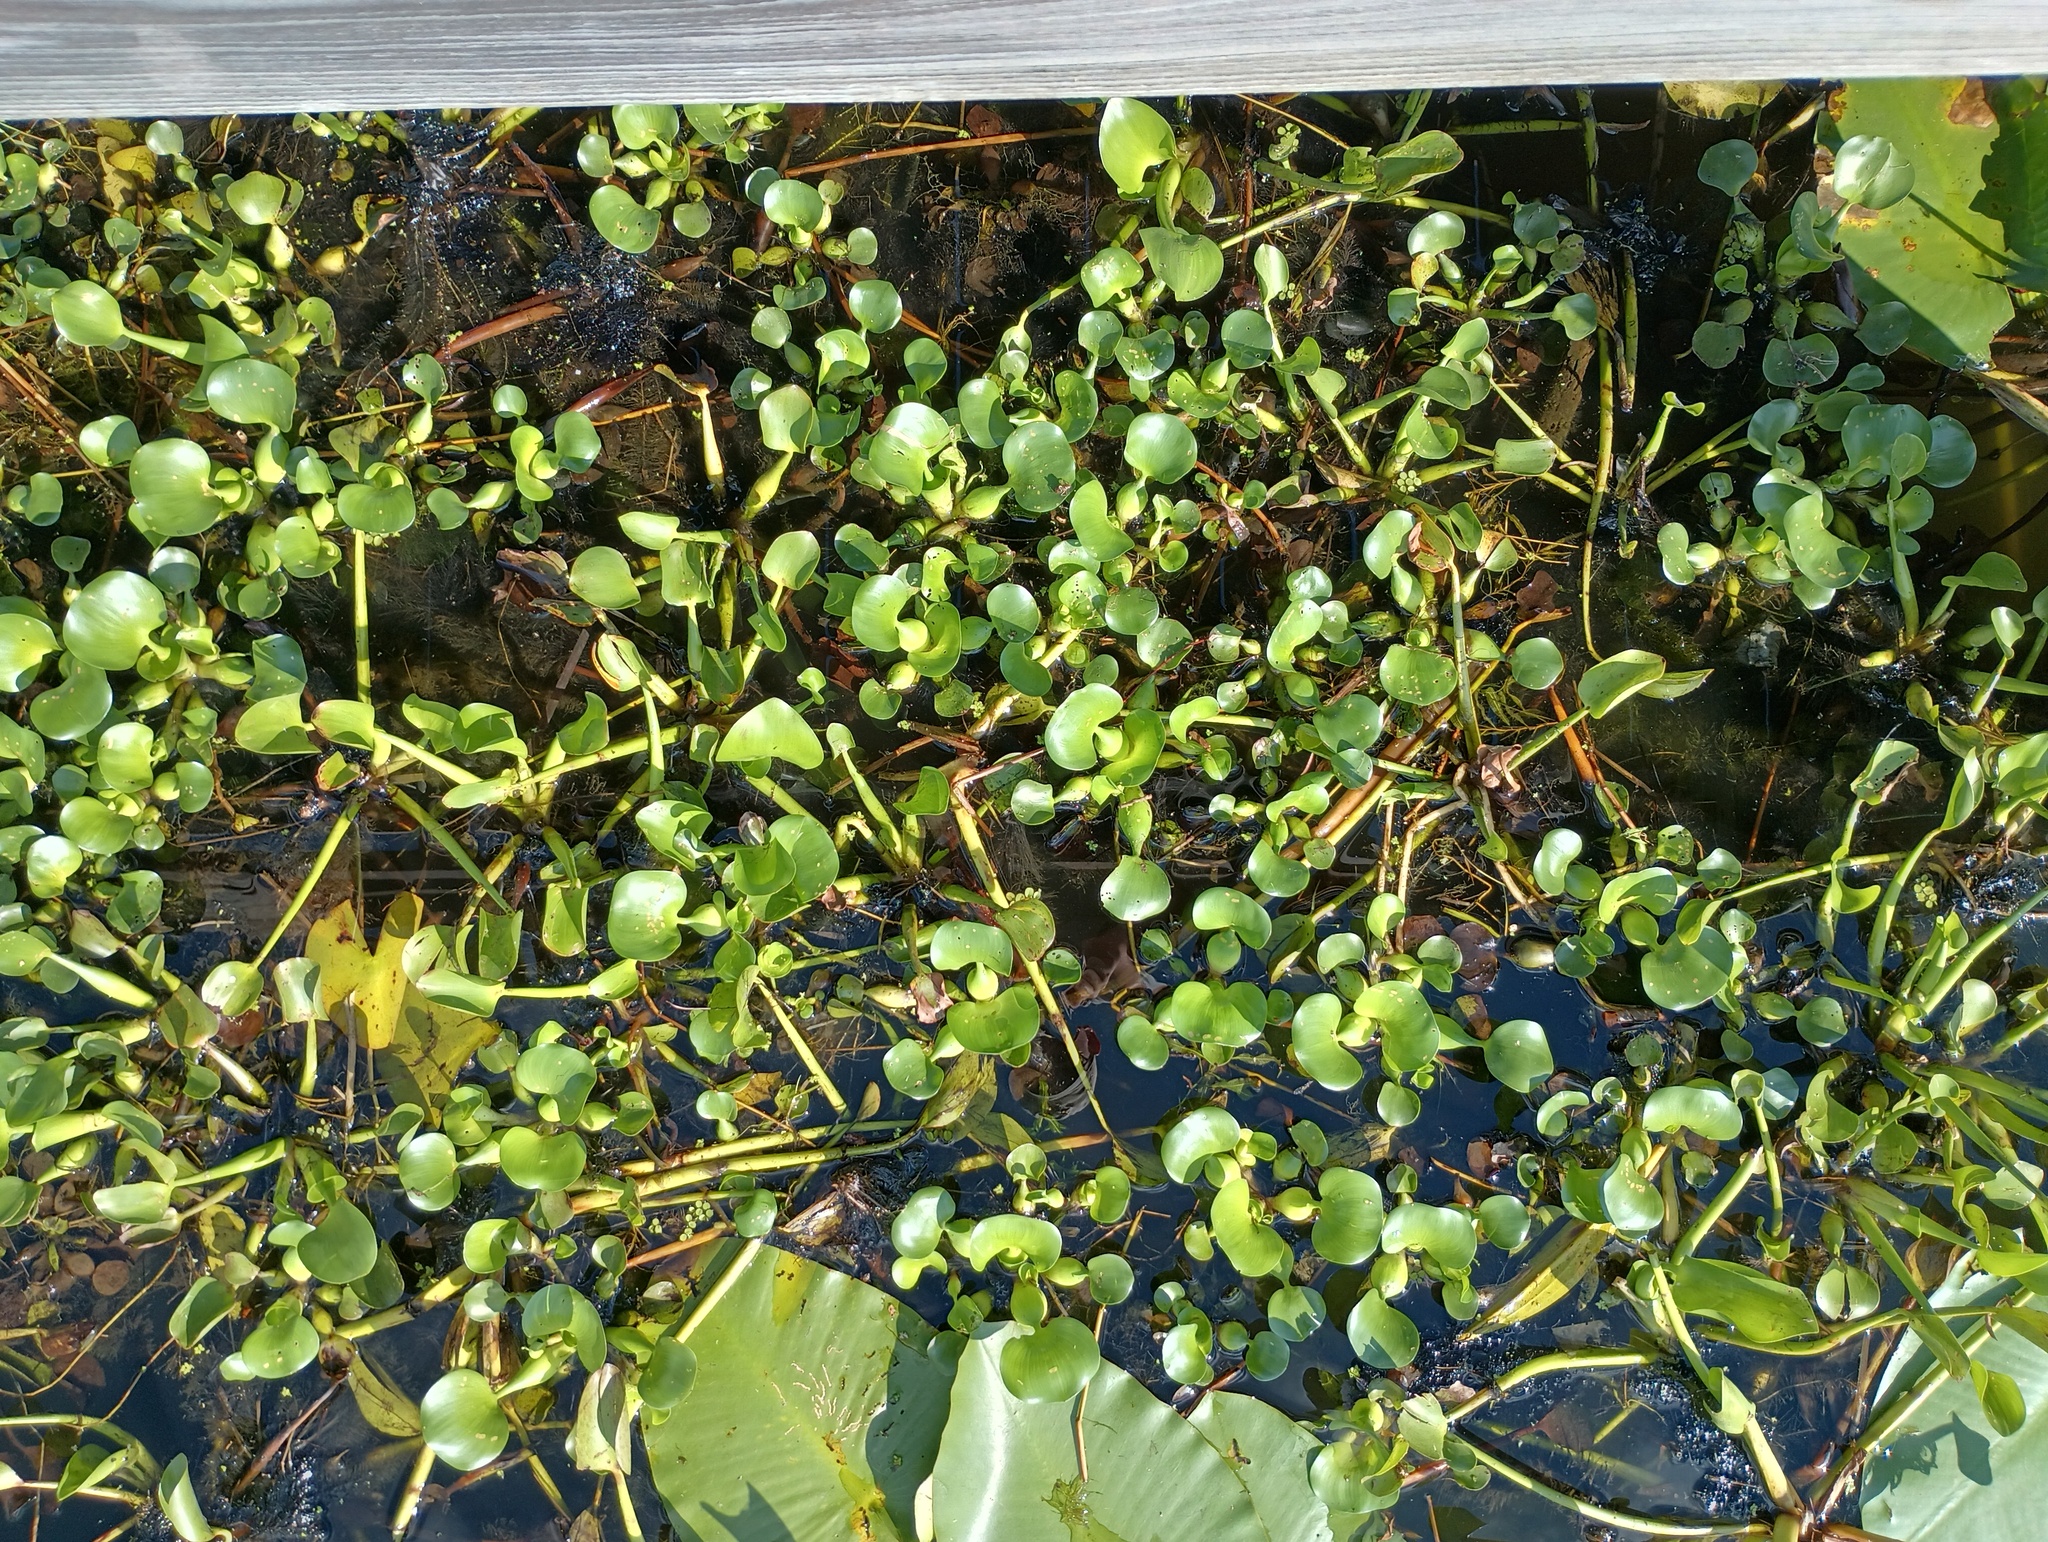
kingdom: Plantae
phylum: Tracheophyta
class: Liliopsida
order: Commelinales
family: Pontederiaceae
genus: Pontederia
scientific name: Pontederia crassipes
